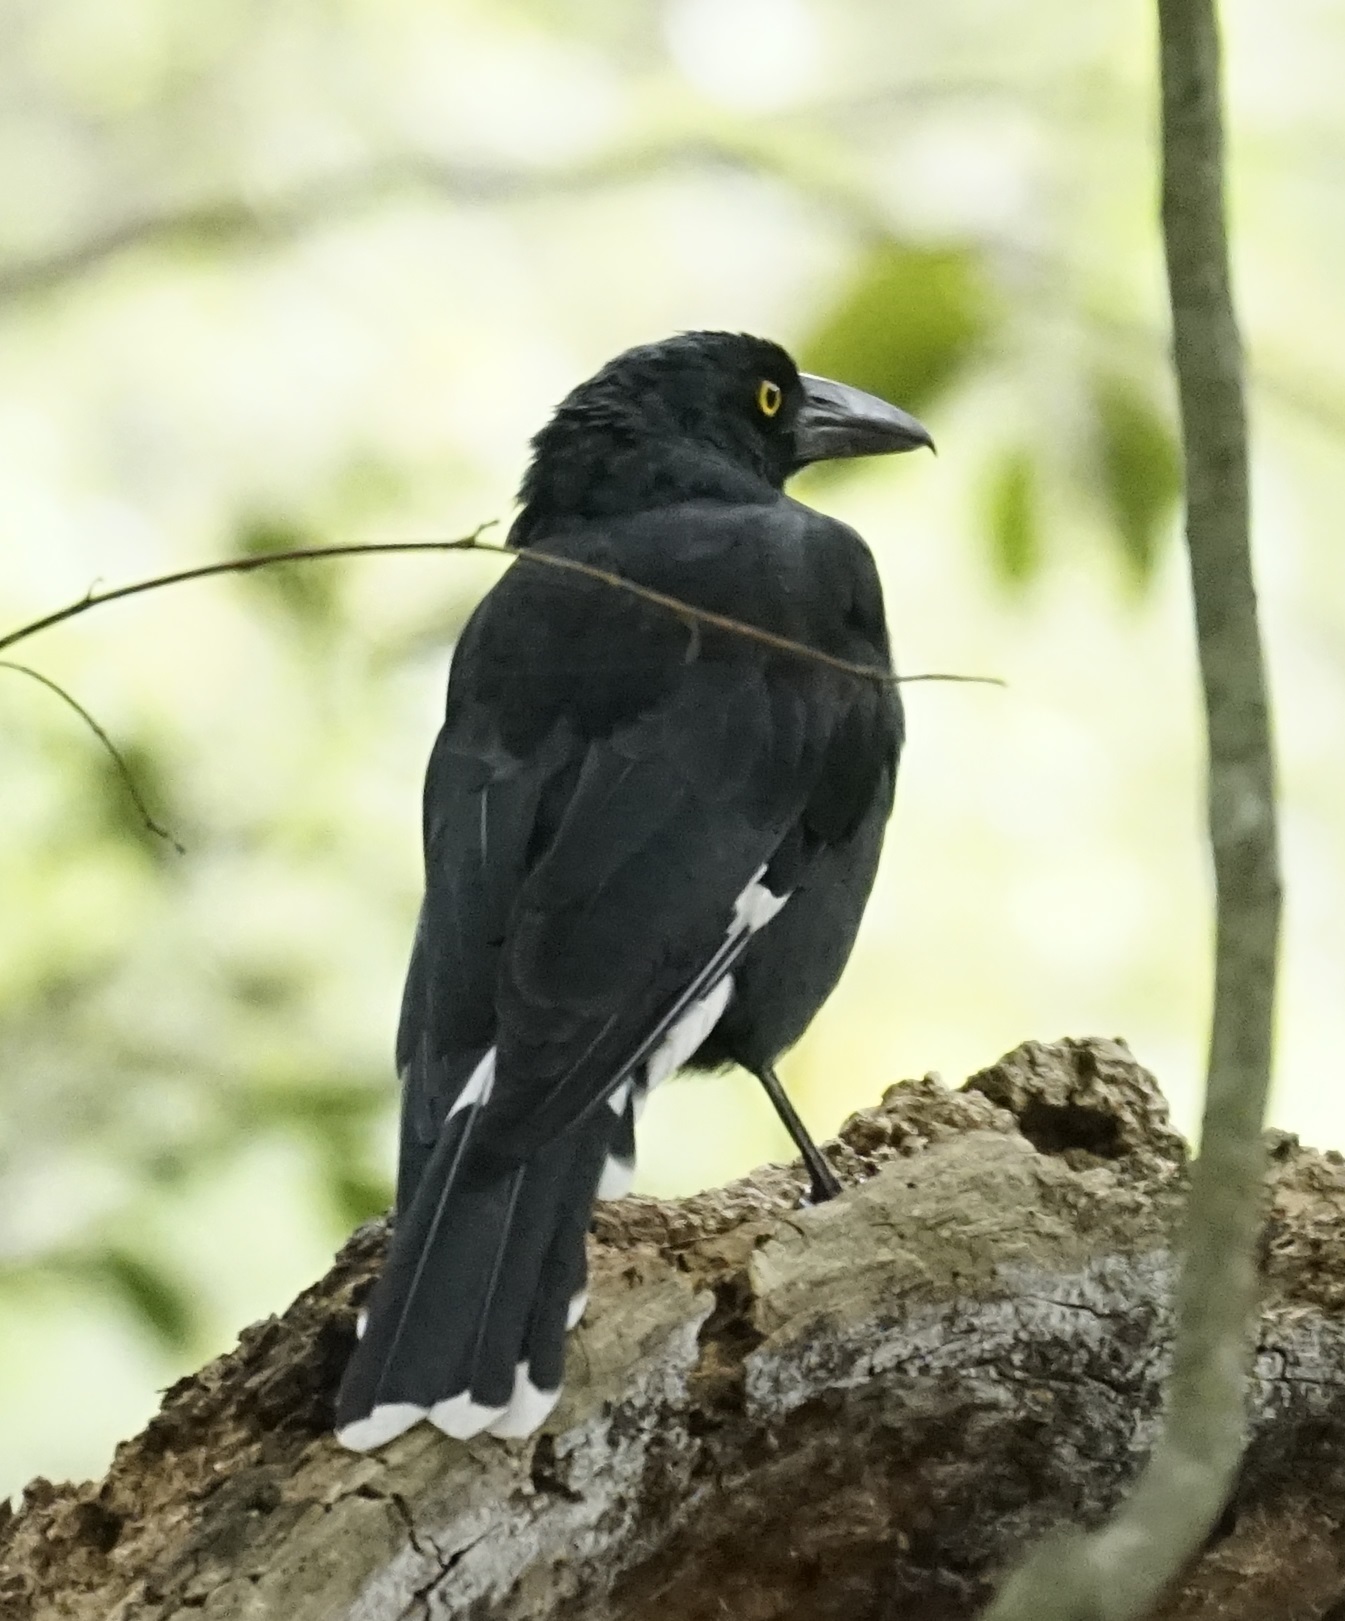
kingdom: Animalia
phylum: Chordata
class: Aves
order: Passeriformes
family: Cracticidae
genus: Strepera
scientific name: Strepera graculina
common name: Pied currawong
